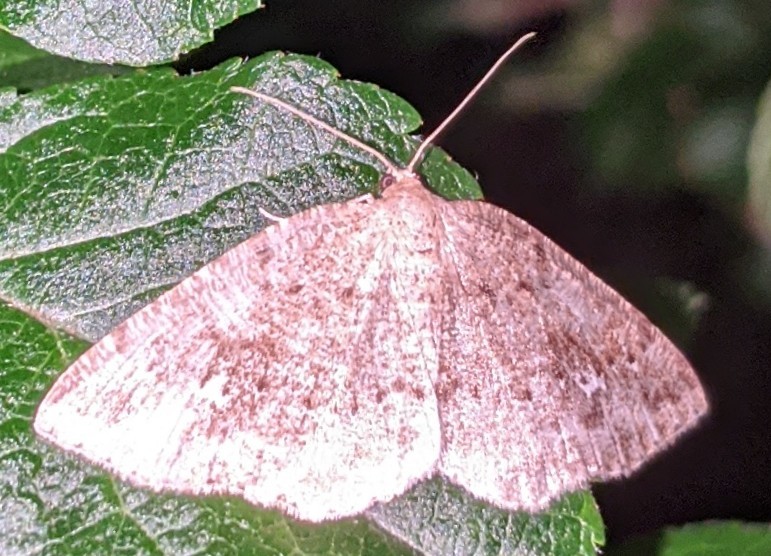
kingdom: Animalia
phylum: Arthropoda
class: Insecta
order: Lepidoptera
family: Geometridae
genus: Homochlodes
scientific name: Homochlodes fritillaria
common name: Pale homochlodes
